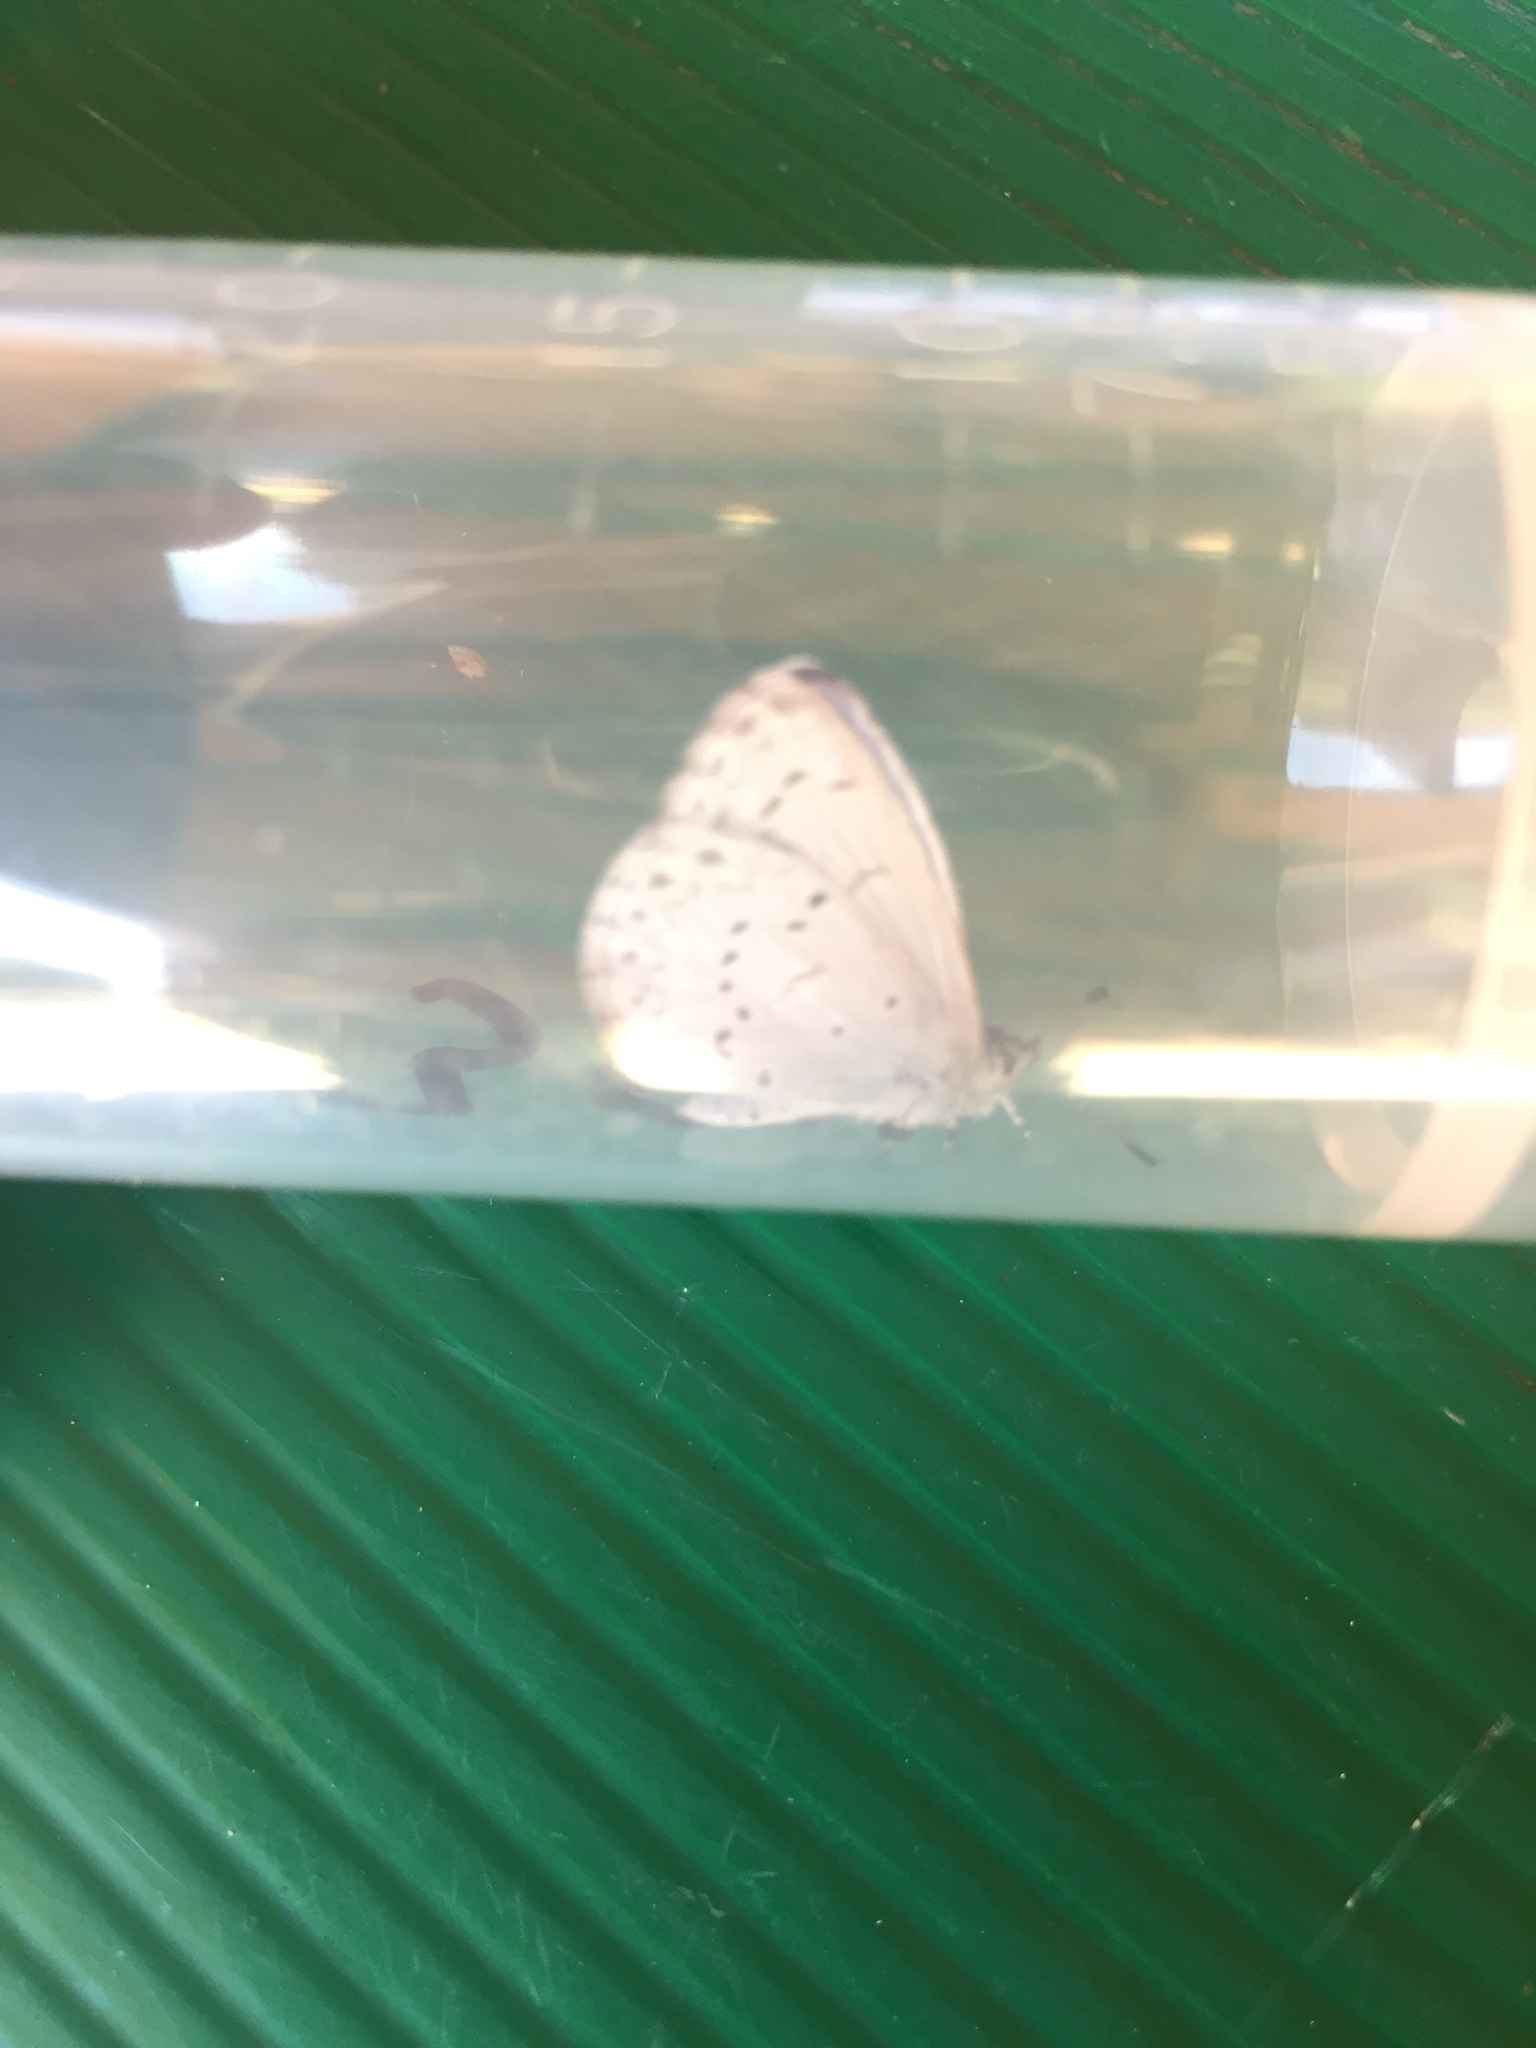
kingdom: Animalia
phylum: Arthropoda
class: Insecta
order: Lepidoptera
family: Lycaenidae
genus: Celastrina
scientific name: Celastrina ladon
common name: Spring azure
